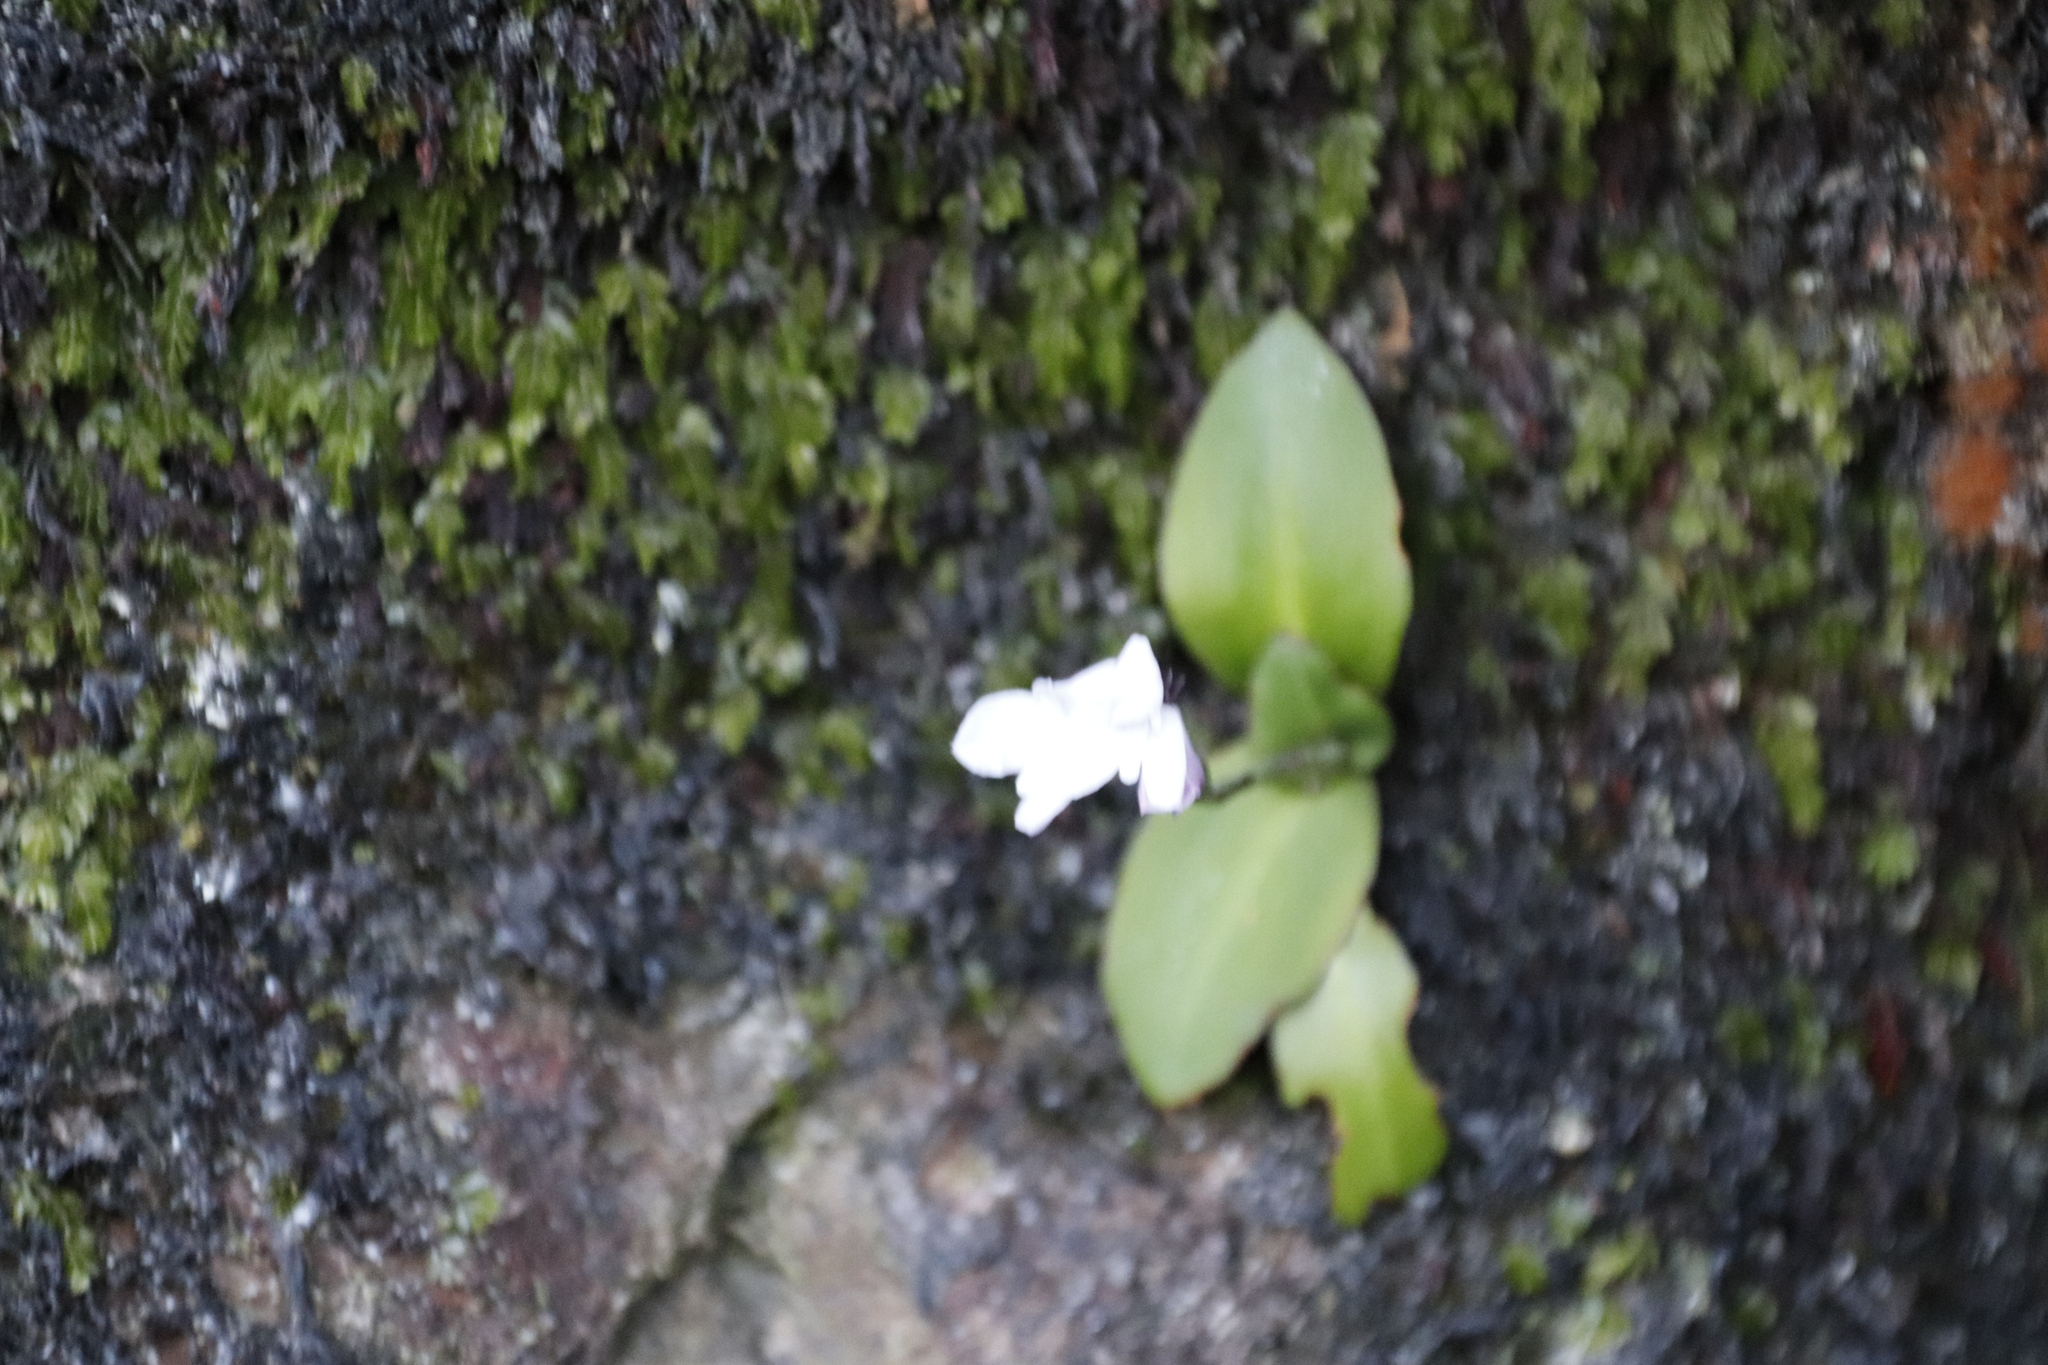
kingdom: Plantae
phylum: Tracheophyta
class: Liliopsida
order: Asparagales
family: Orchidaceae
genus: Disa
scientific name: Disa rosea
